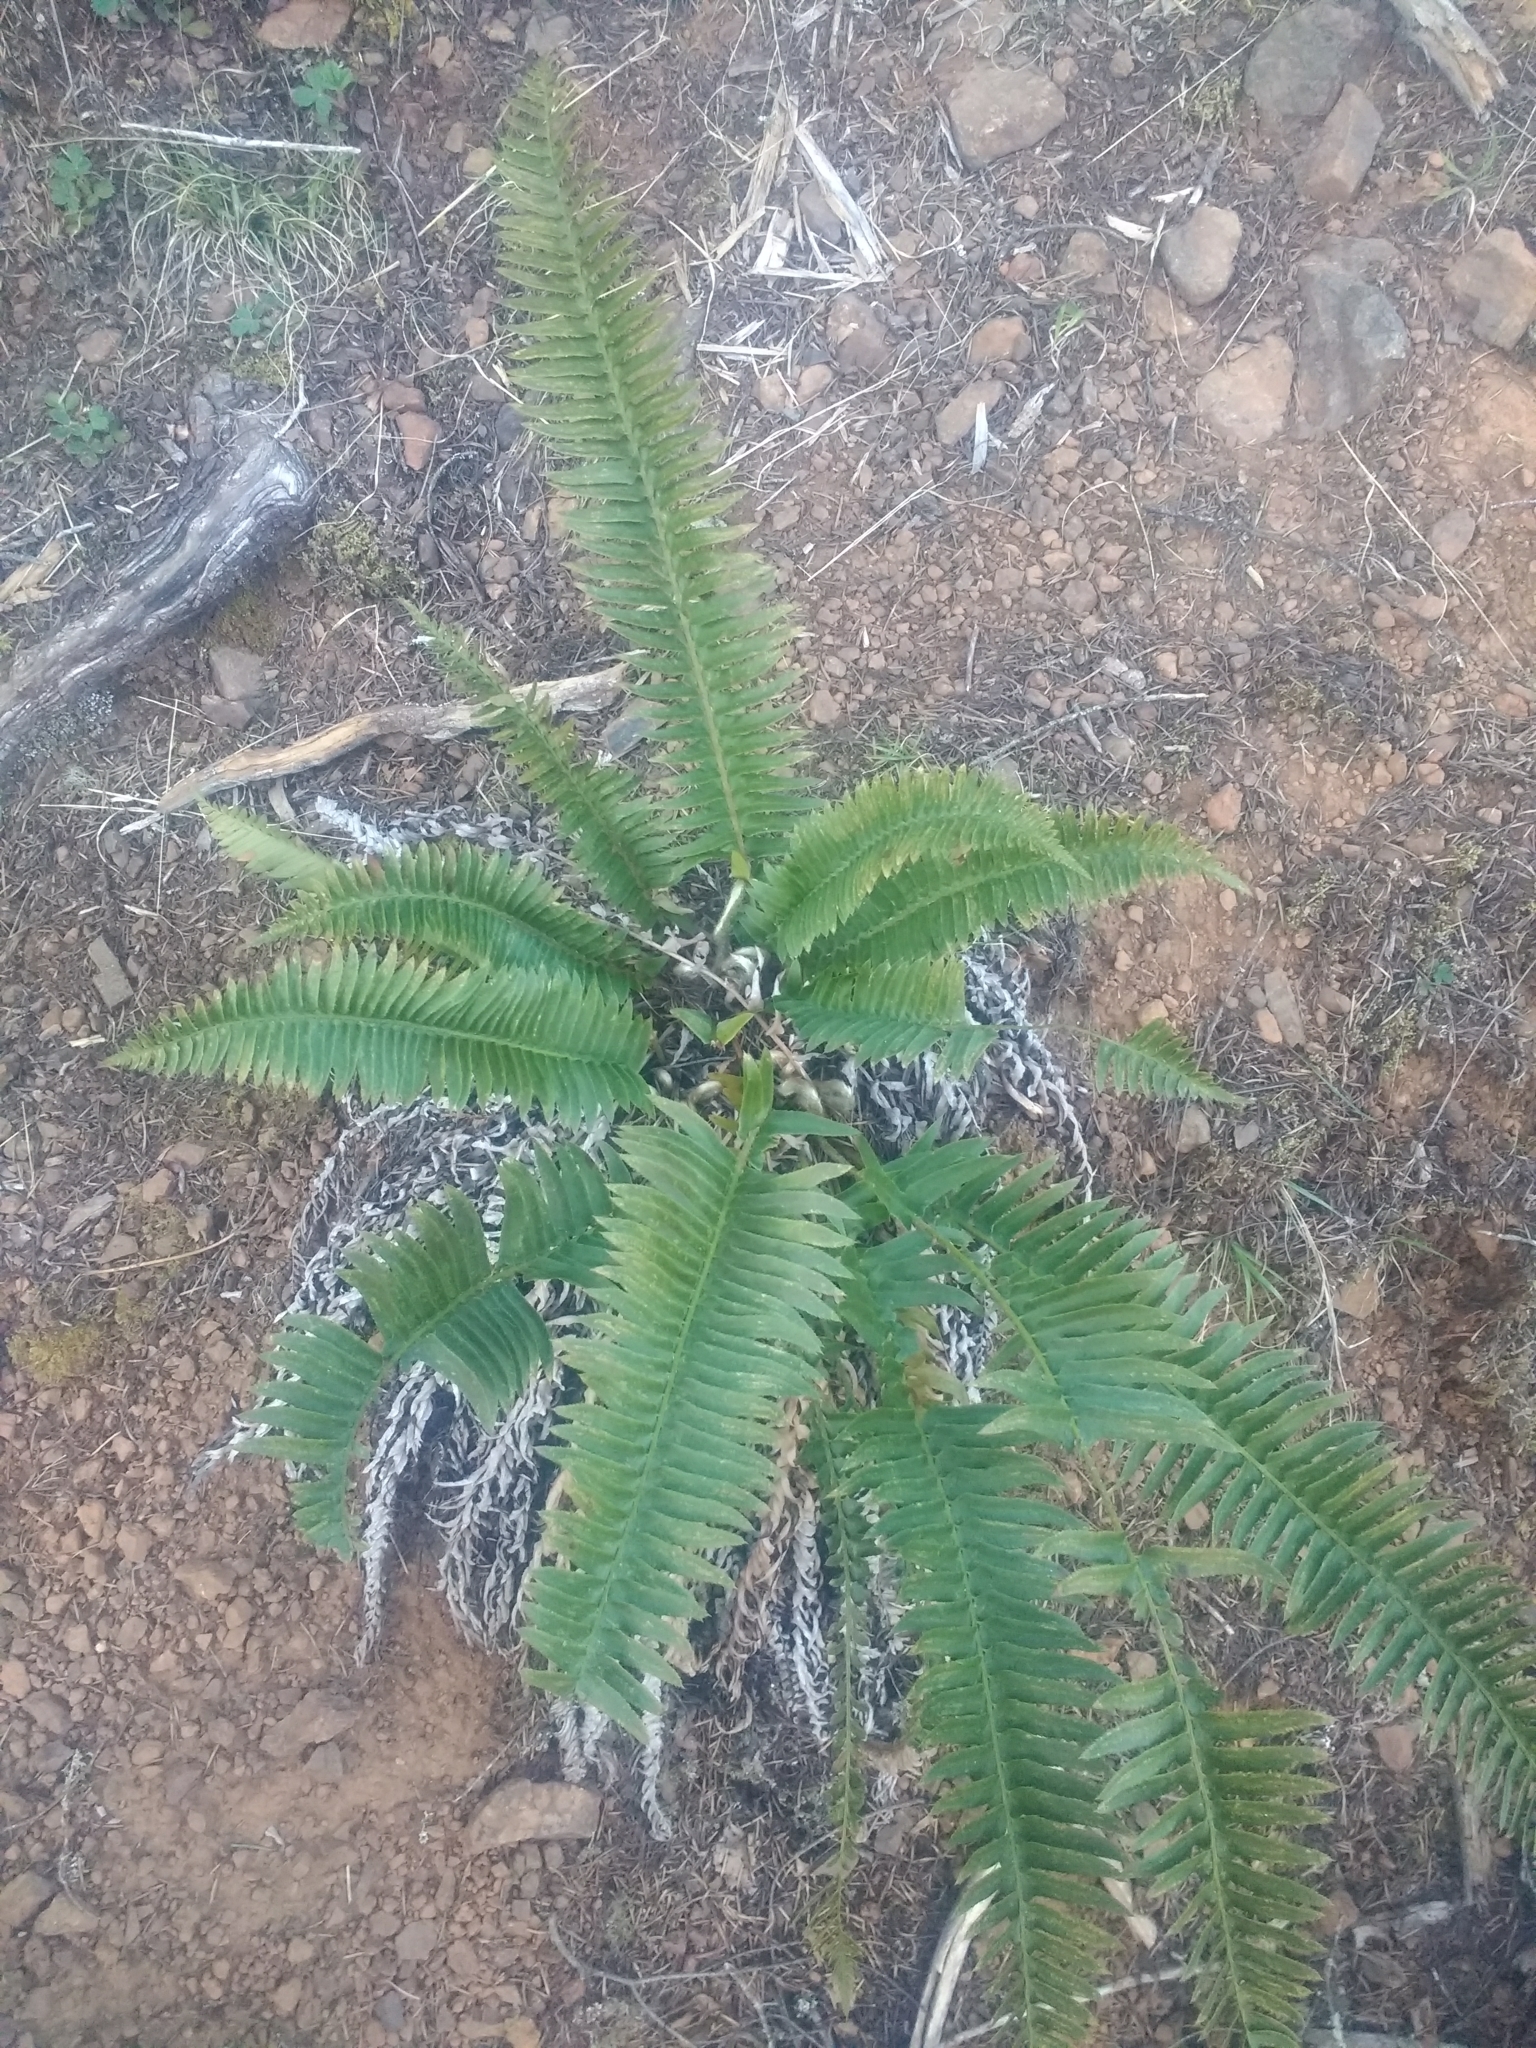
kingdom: Plantae
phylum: Tracheophyta
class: Polypodiopsida
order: Polypodiales
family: Dryopteridaceae
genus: Polystichum
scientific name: Polystichum munitum
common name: Western sword-fern
